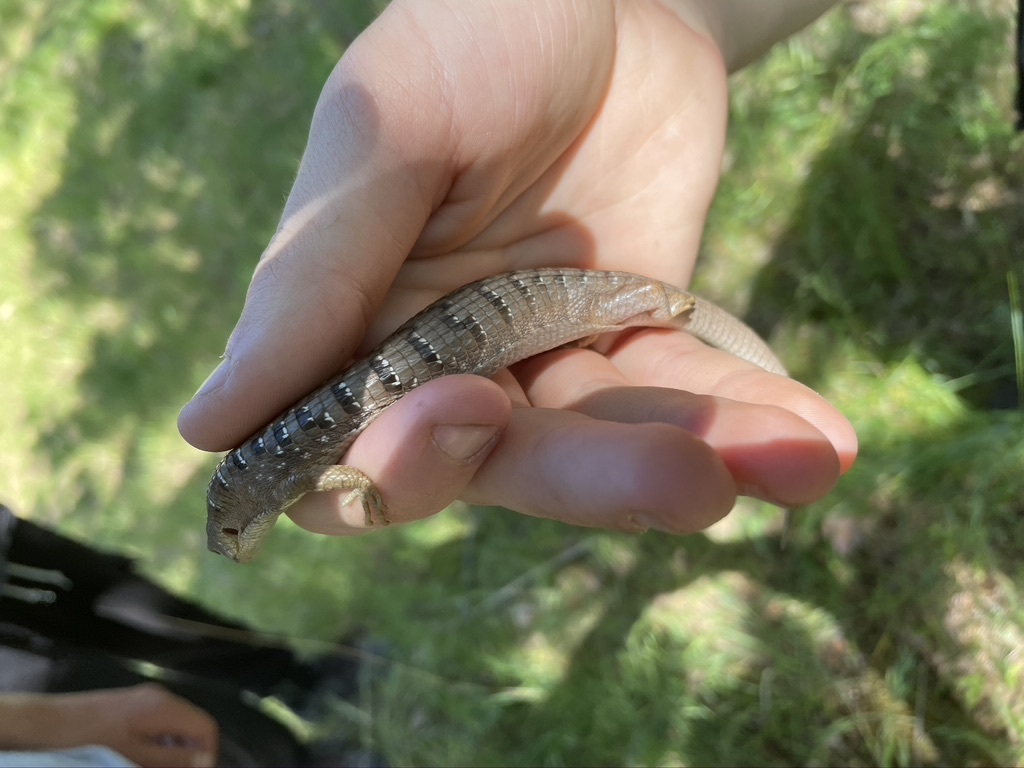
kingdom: Animalia
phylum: Chordata
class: Squamata
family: Anguidae
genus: Elgaria
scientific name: Elgaria multicarinata
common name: Southern alligator lizard
